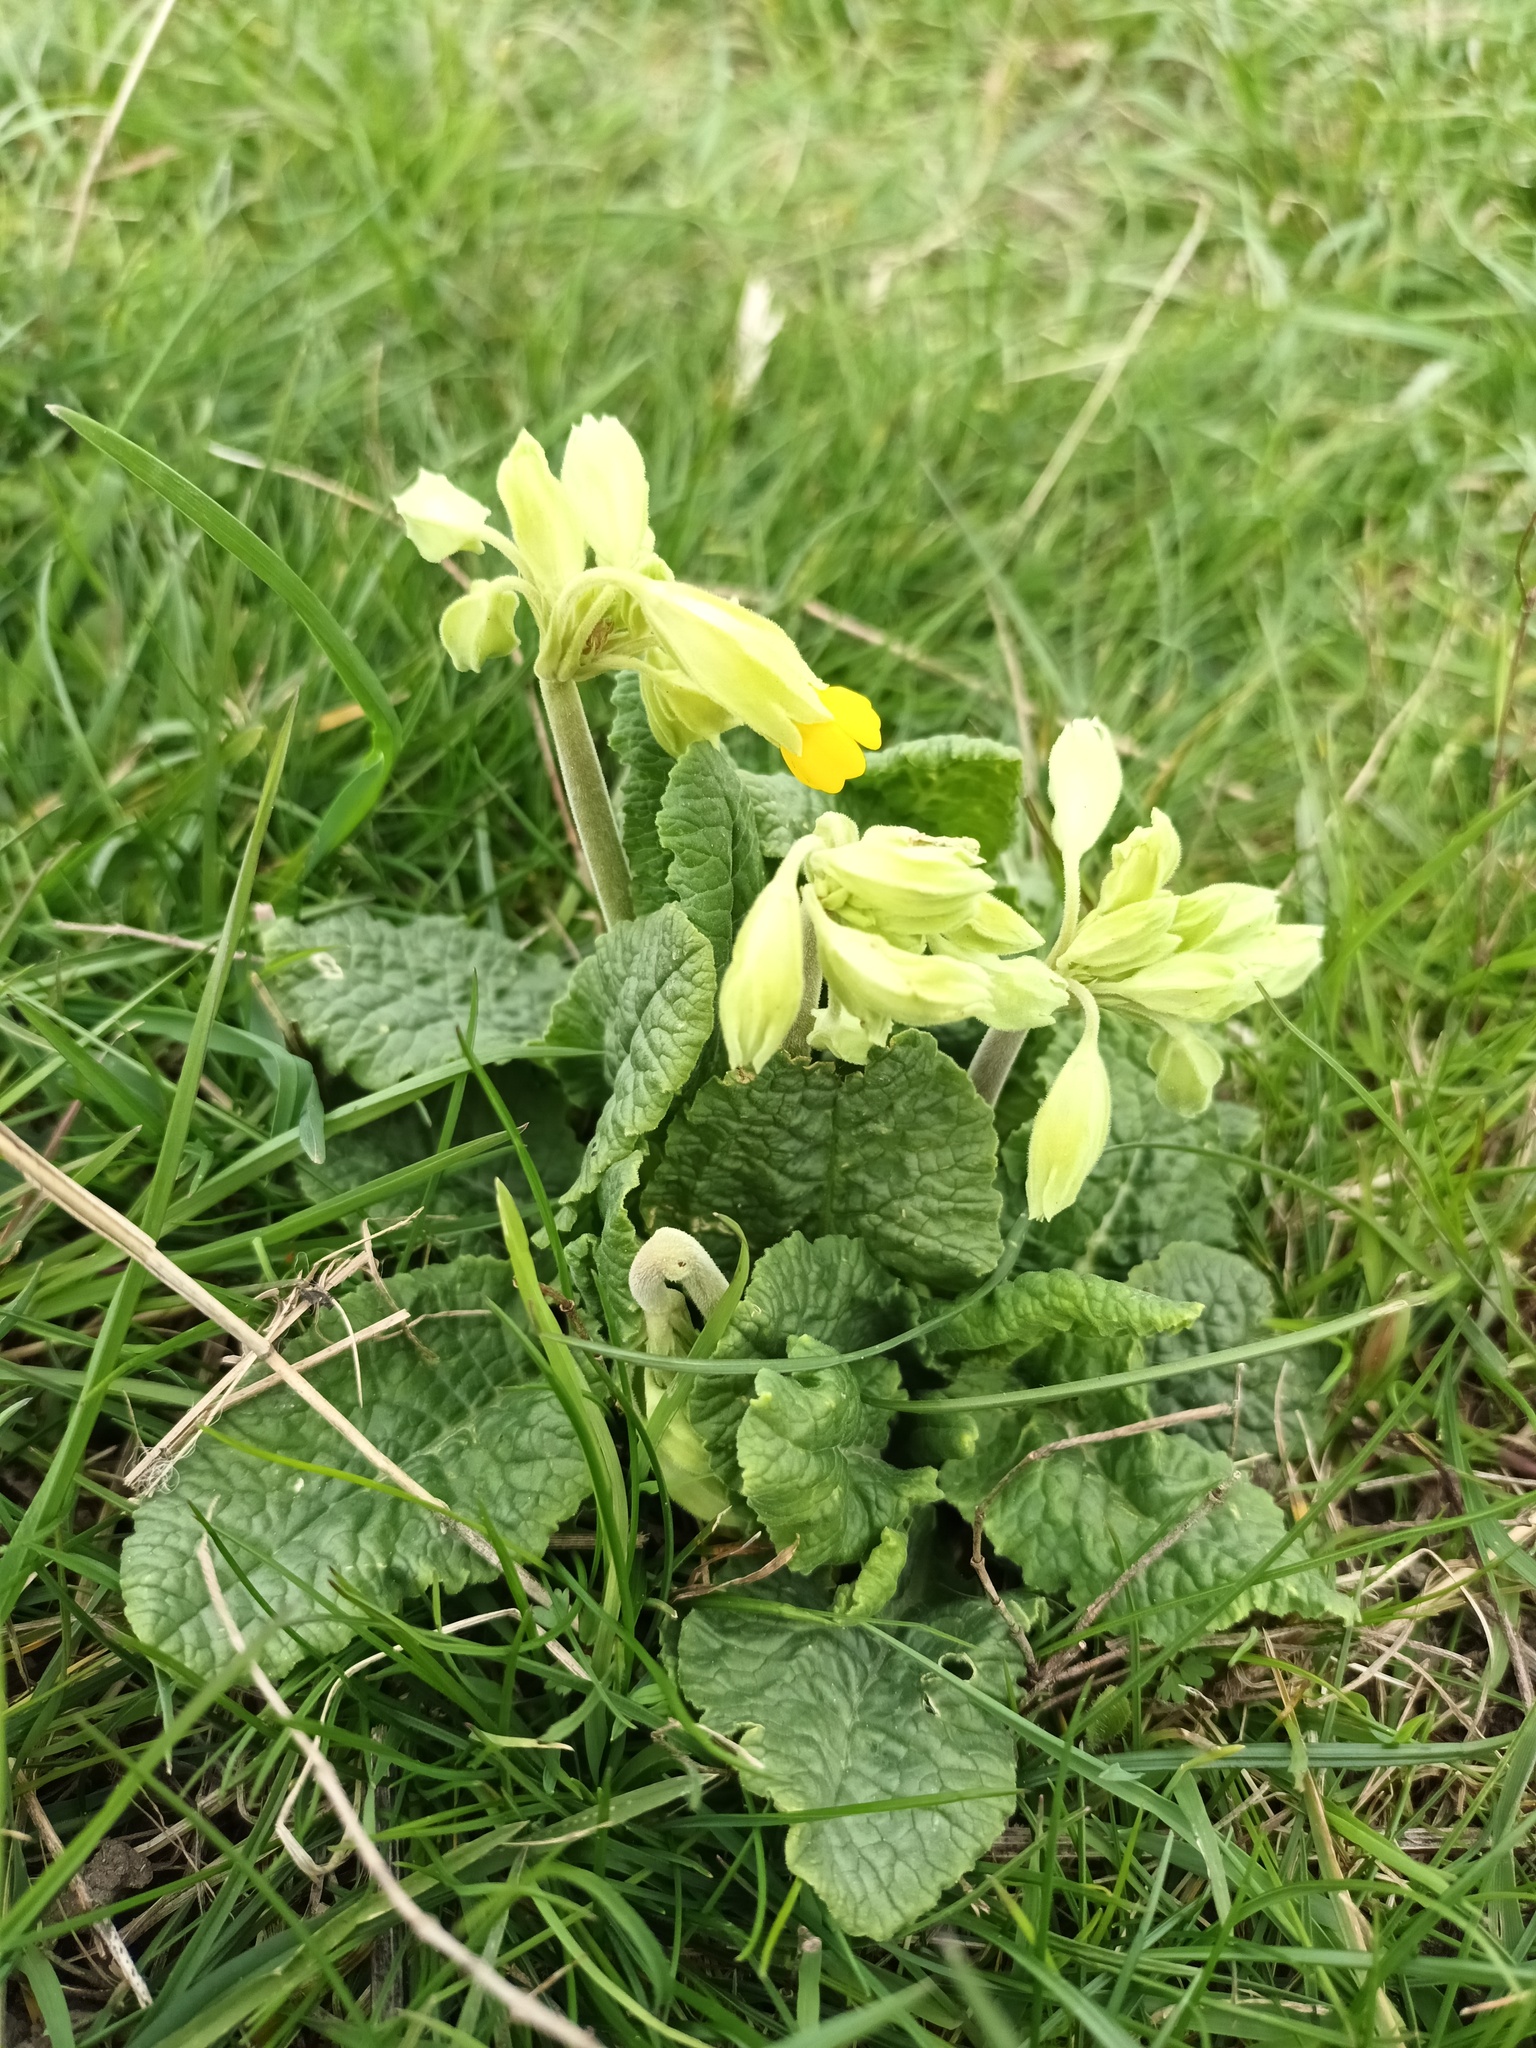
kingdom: Plantae
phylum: Tracheophyta
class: Magnoliopsida
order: Ericales
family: Primulaceae
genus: Primula
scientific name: Primula veris
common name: Cowslip
